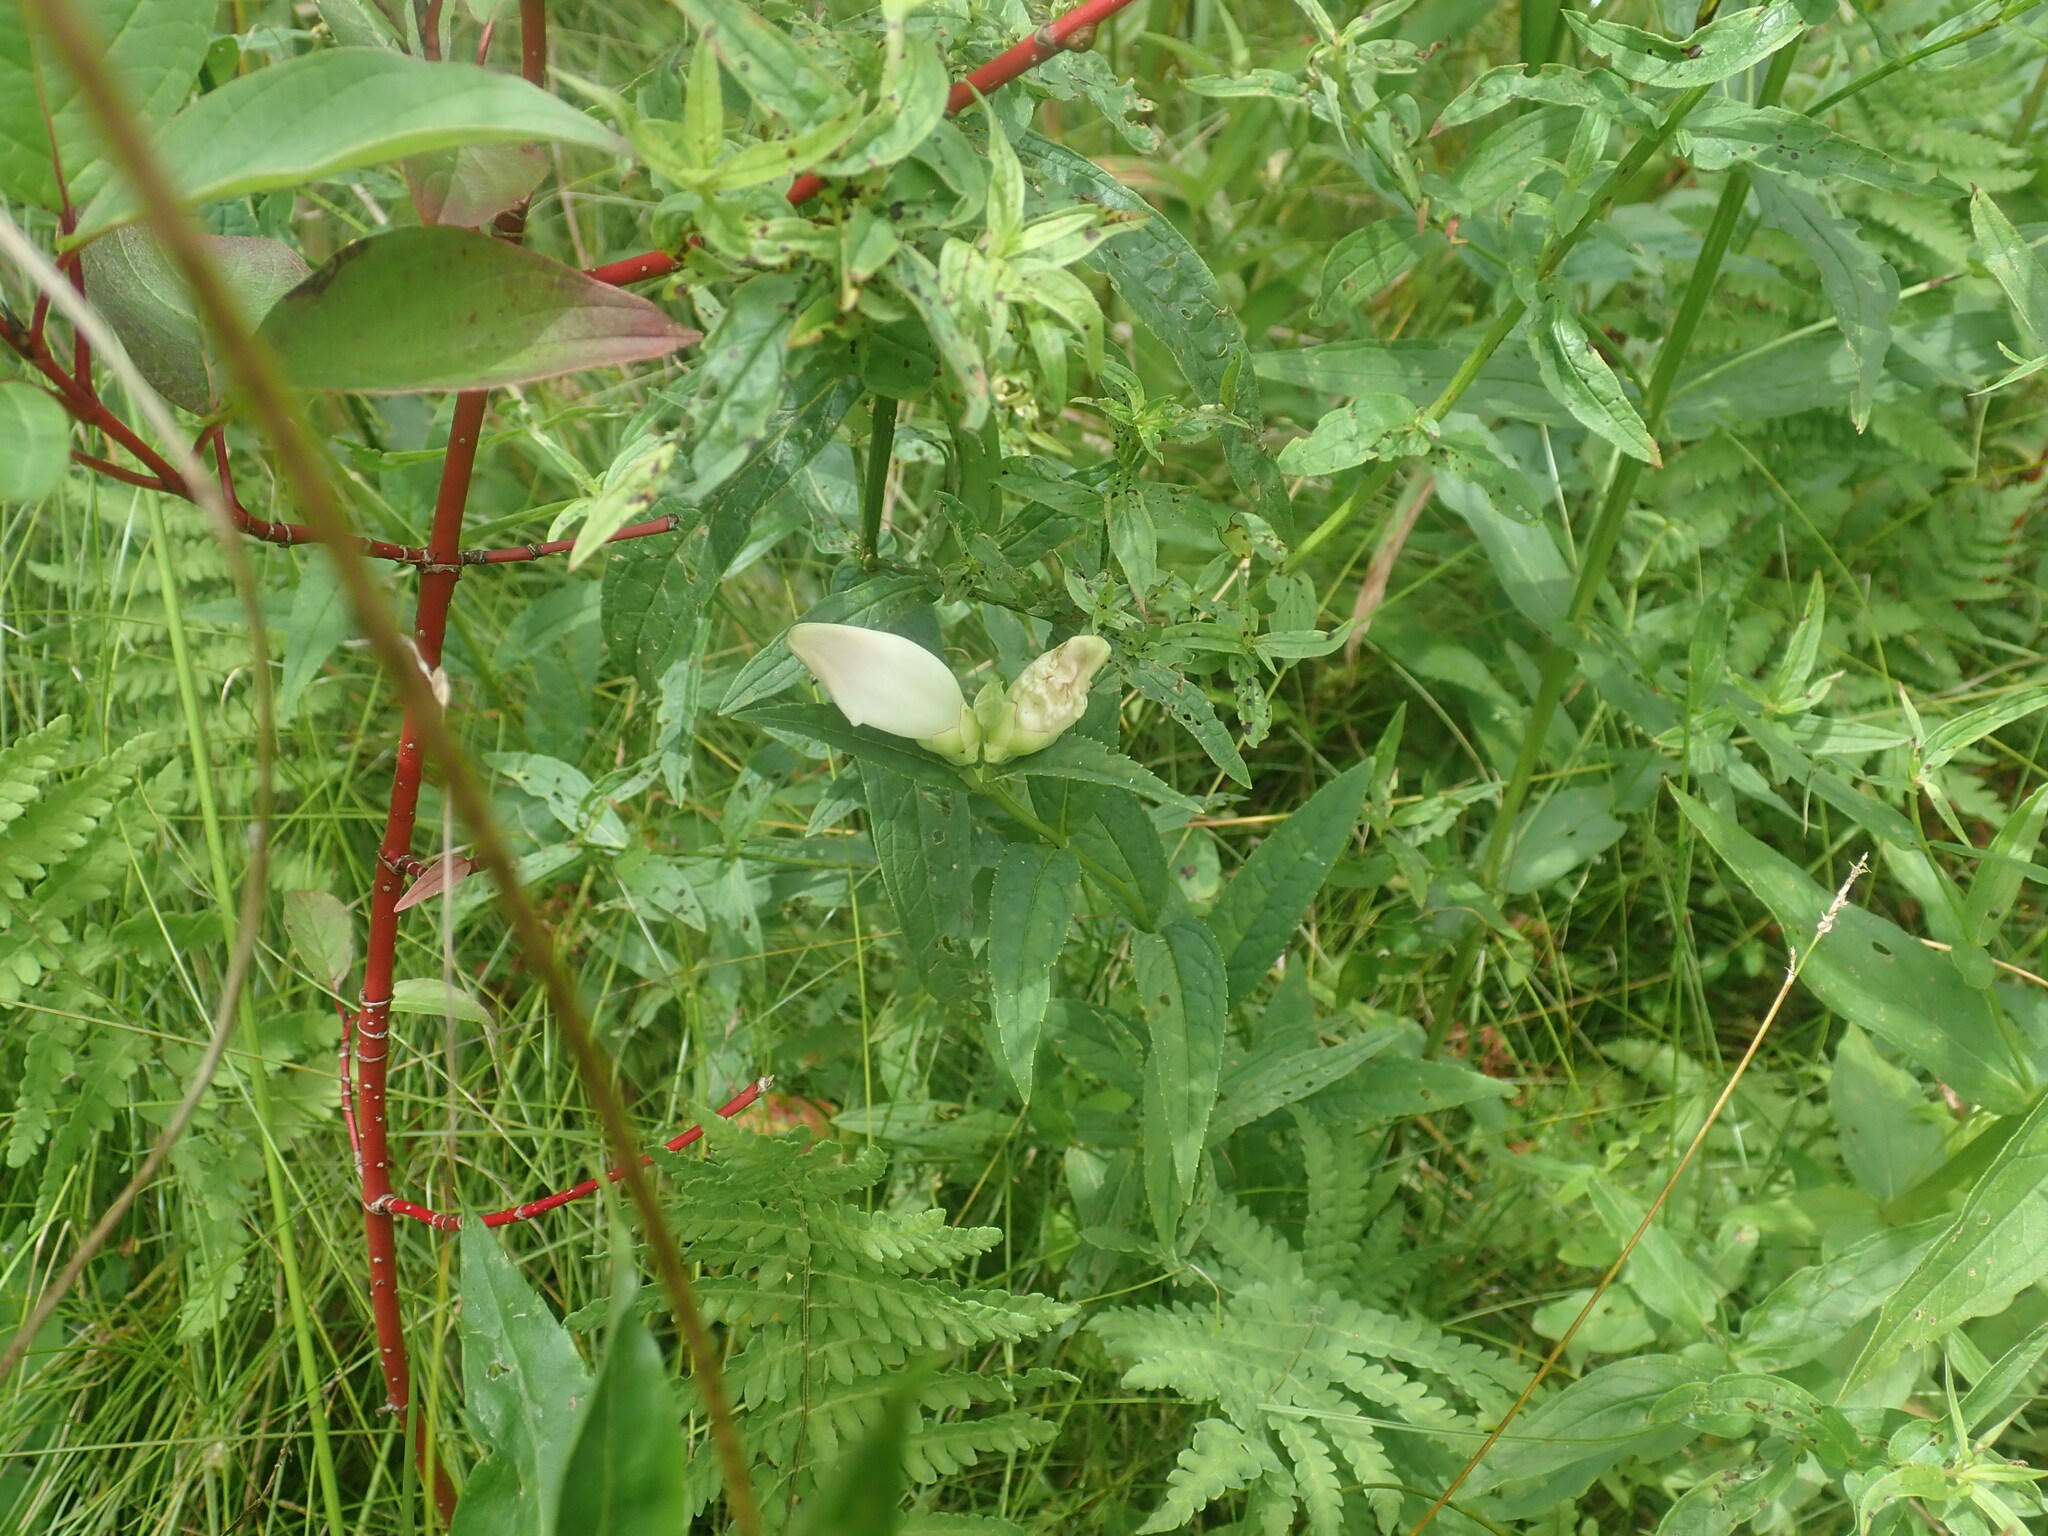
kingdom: Plantae
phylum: Tracheophyta
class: Magnoliopsida
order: Lamiales
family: Plantaginaceae
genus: Chelone
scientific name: Chelone glabra
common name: Snakehead
